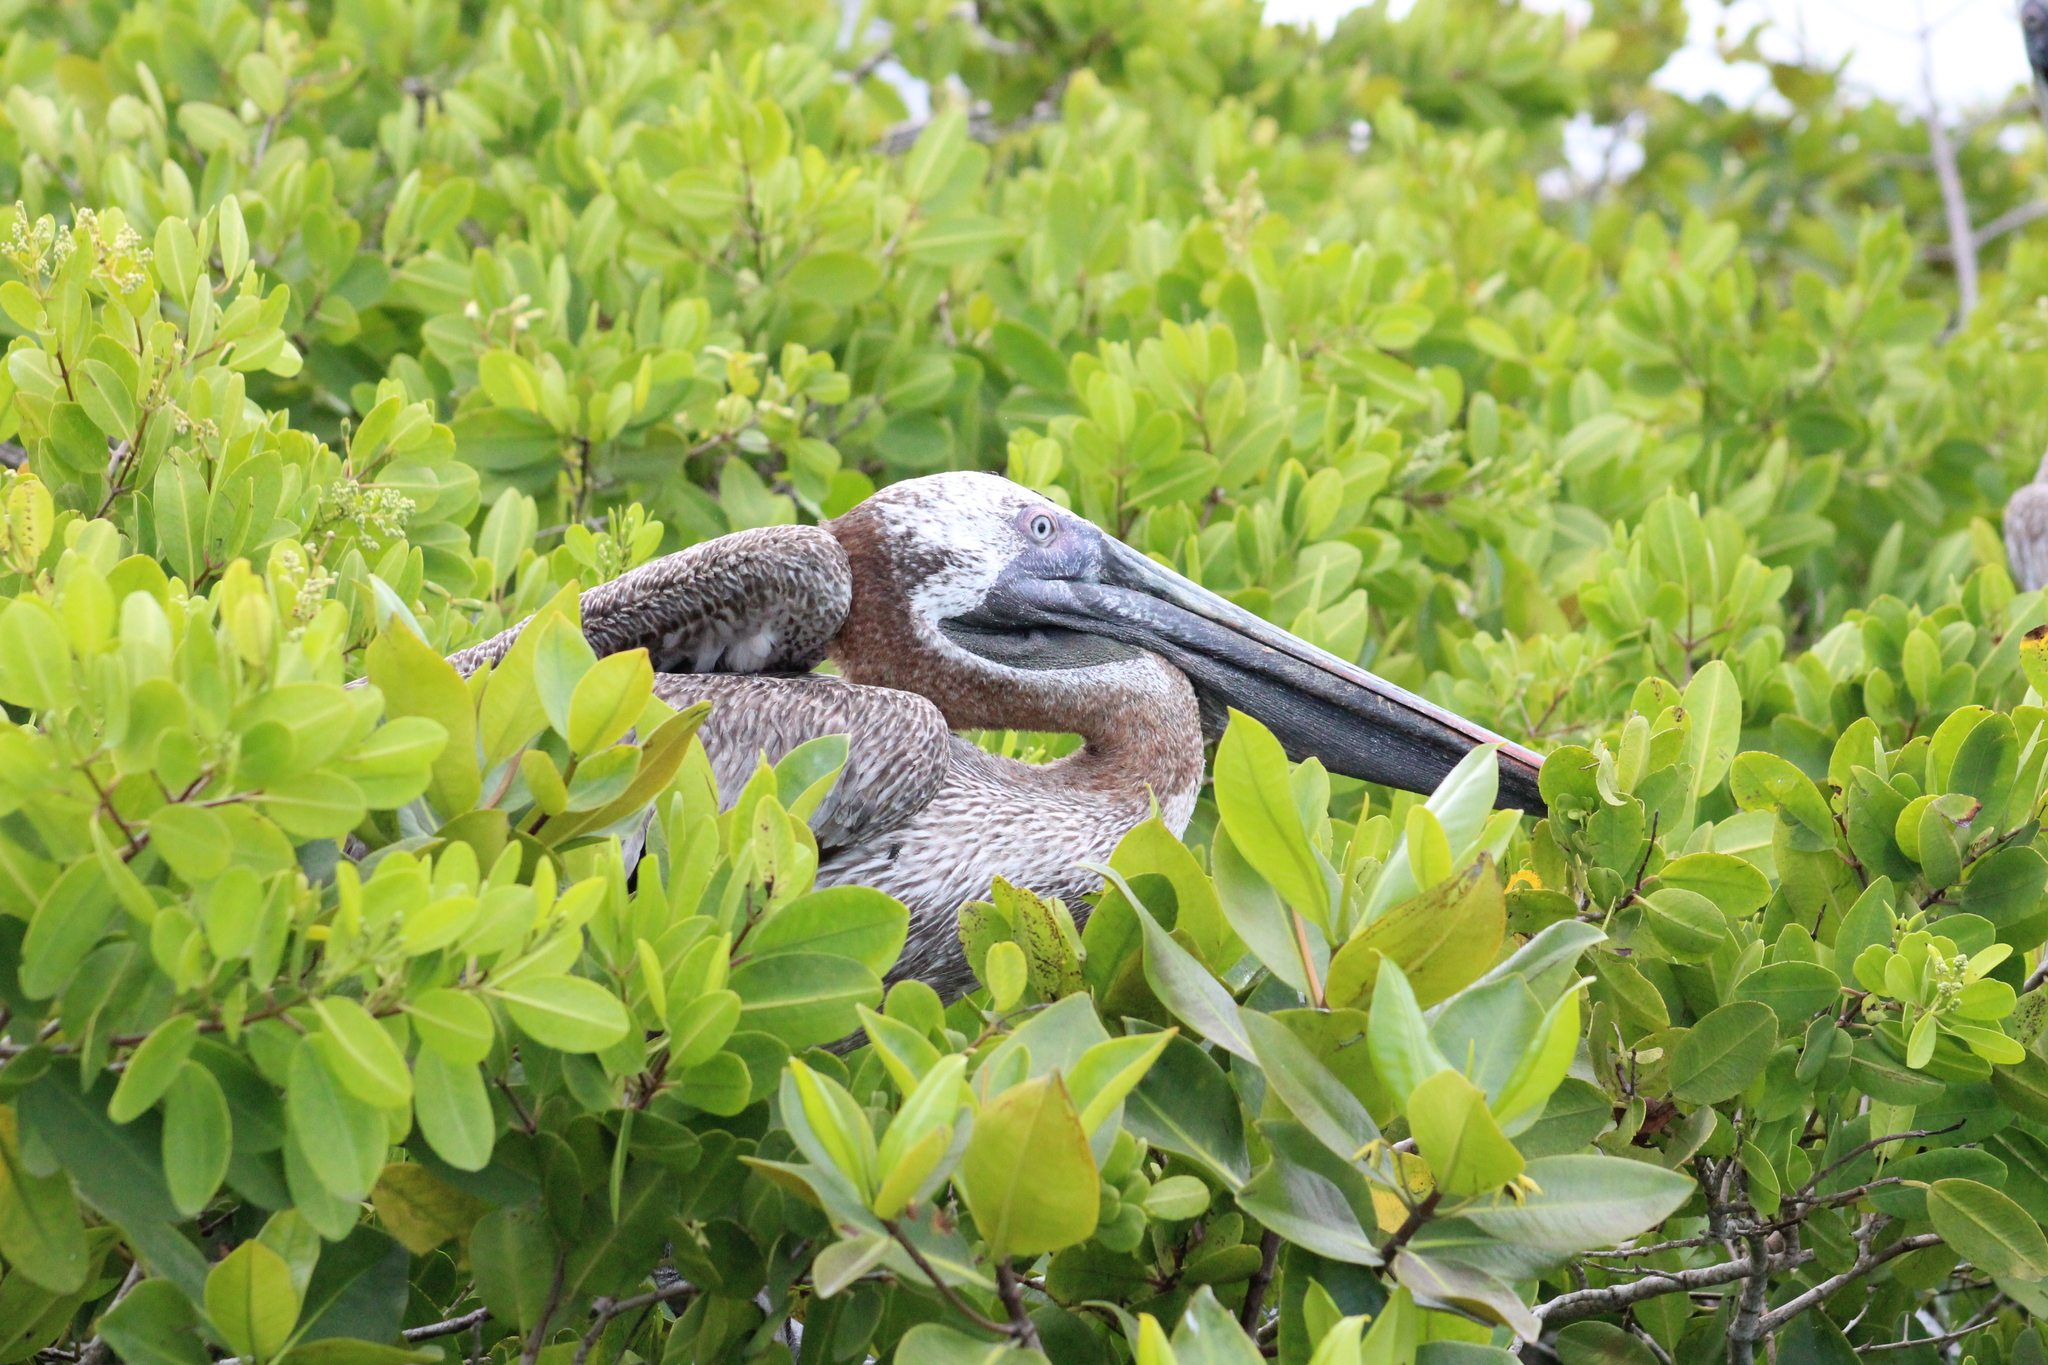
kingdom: Animalia
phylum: Chordata
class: Aves
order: Pelecaniformes
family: Pelecanidae
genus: Pelecanus
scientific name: Pelecanus occidentalis
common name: Brown pelican
